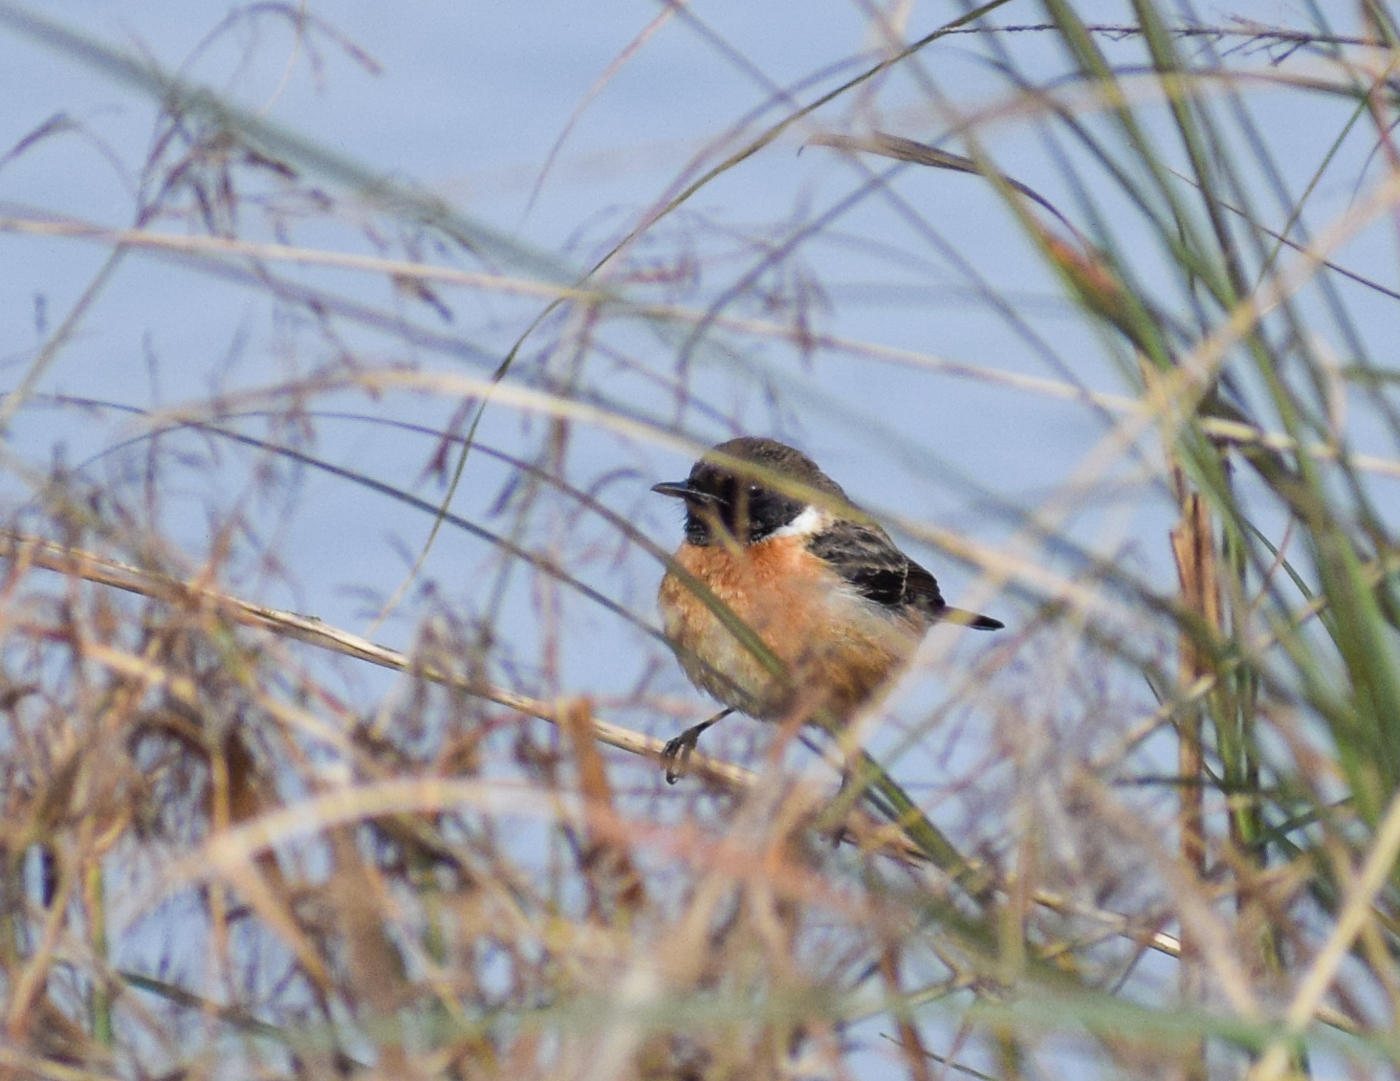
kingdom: Animalia
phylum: Chordata
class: Aves
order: Passeriformes
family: Muscicapidae
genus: Saxicola
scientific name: Saxicola maurus
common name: Siberian stonechat
